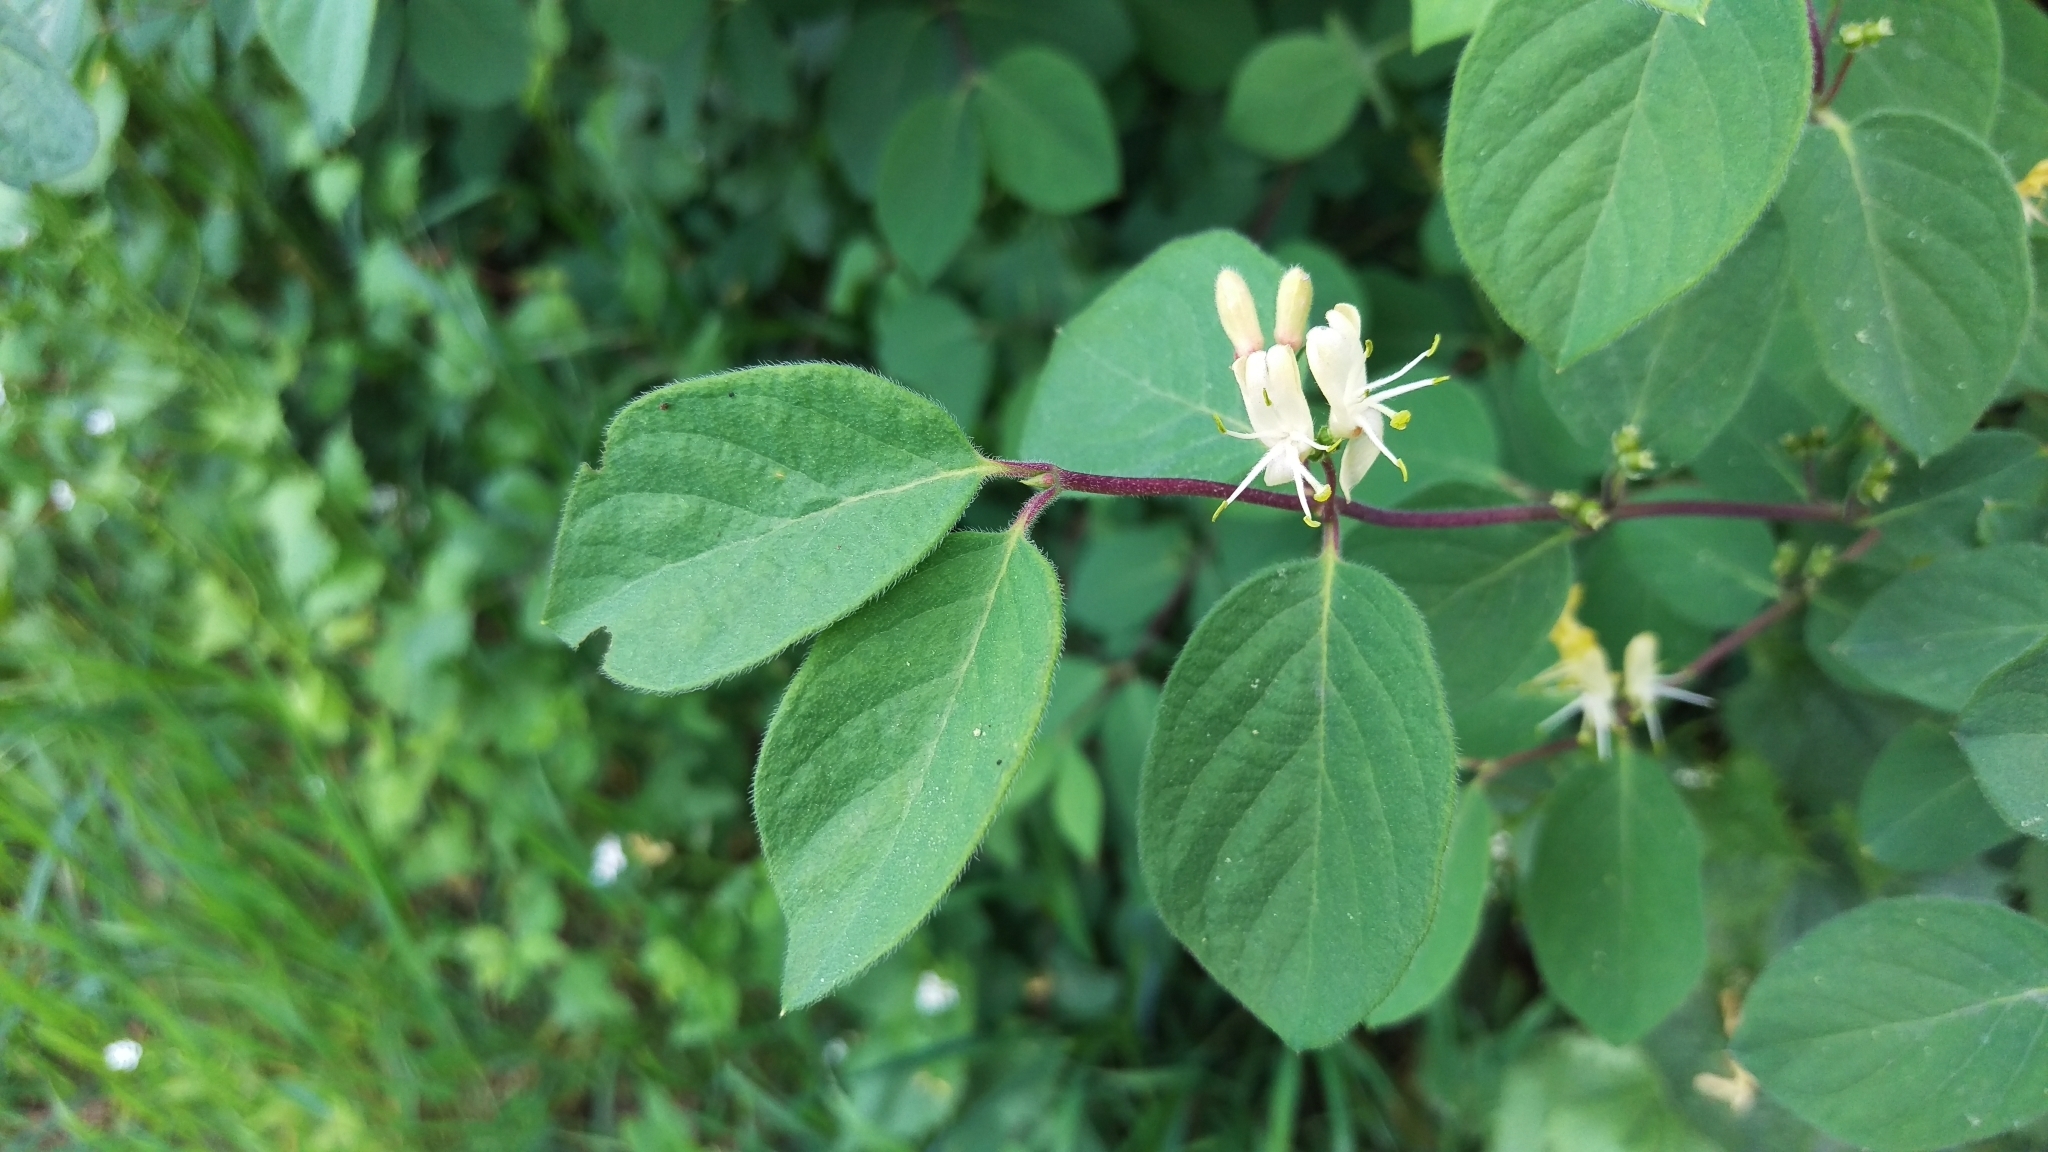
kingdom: Plantae
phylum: Tracheophyta
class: Magnoliopsida
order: Dipsacales
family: Caprifoliaceae
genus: Lonicera
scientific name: Lonicera xylosteum
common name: Fly honeysuckle
